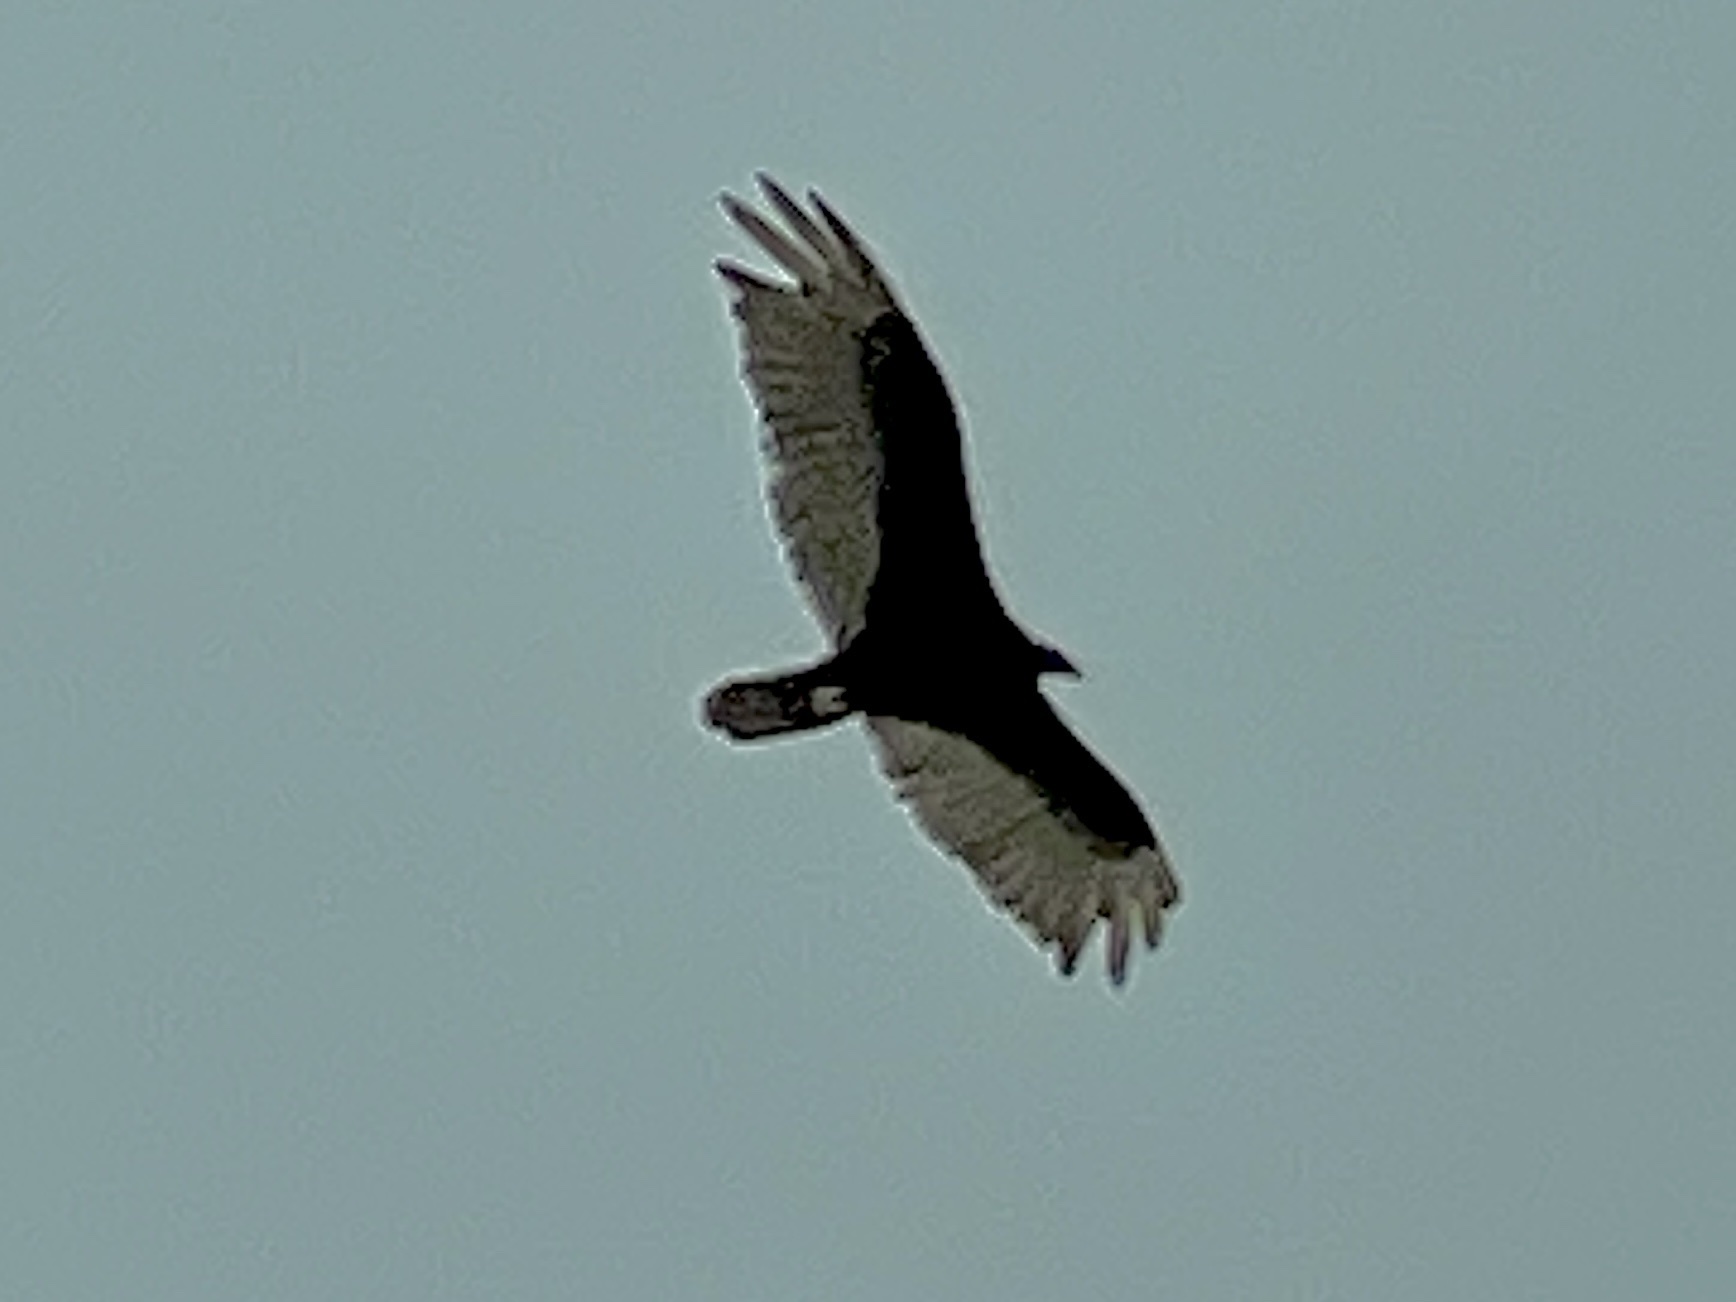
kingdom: Animalia
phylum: Chordata
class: Aves
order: Accipitriformes
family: Cathartidae
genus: Cathartes
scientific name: Cathartes aura
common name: Turkey vulture
